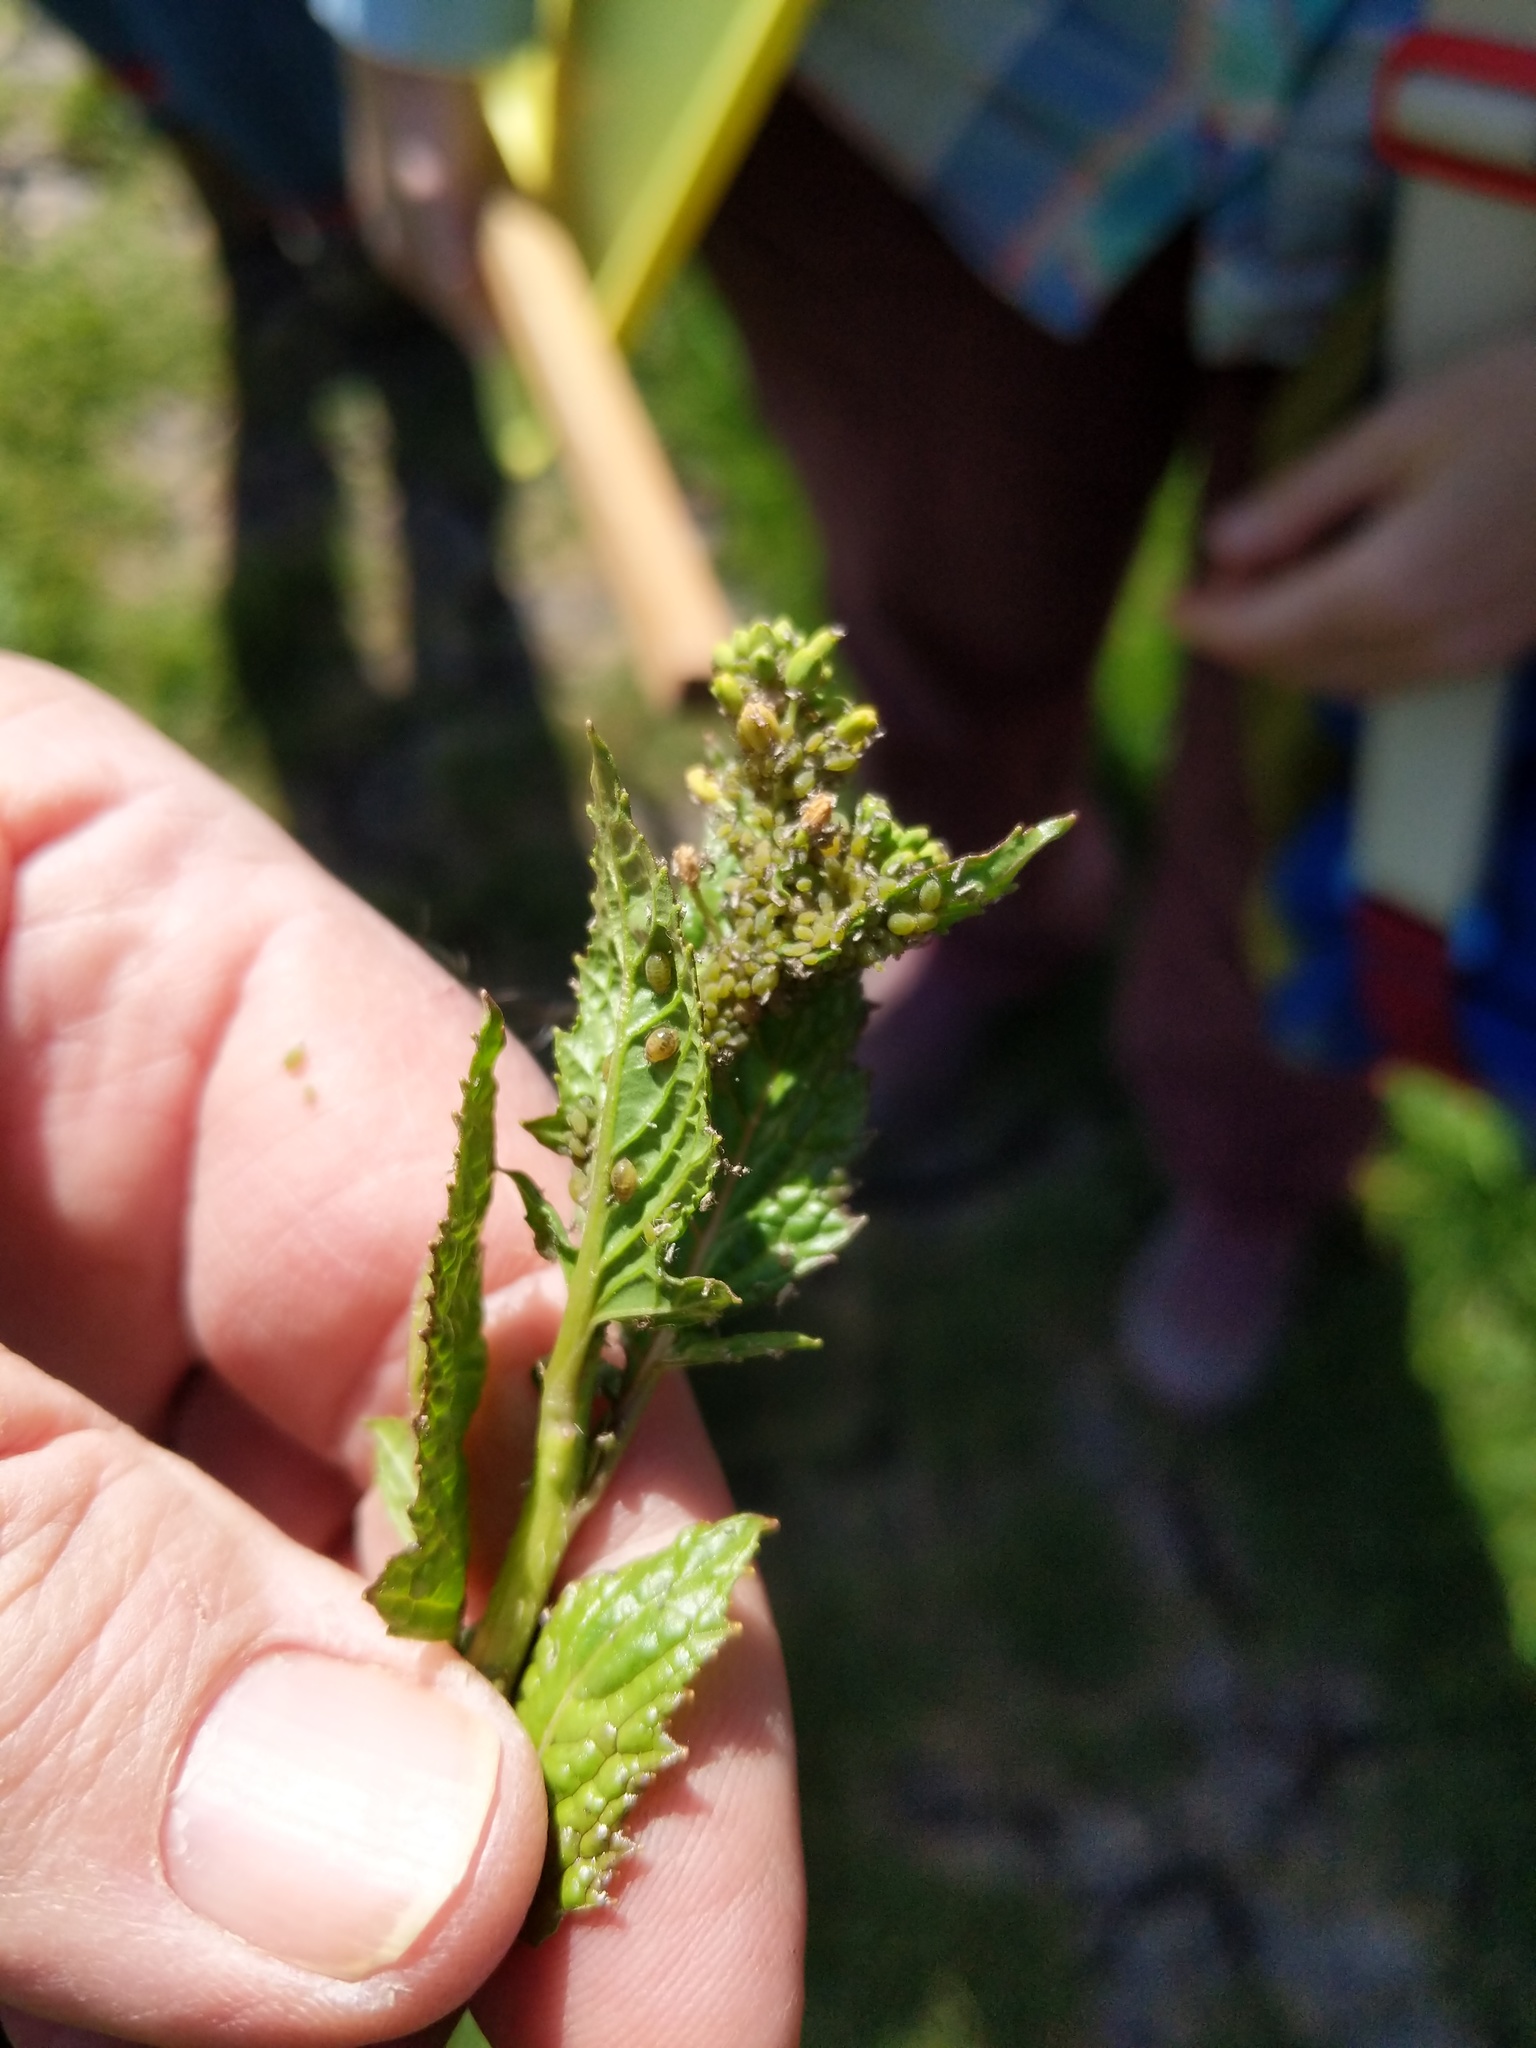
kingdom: Animalia
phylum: Arthropoda
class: Insecta
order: Hemiptera
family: Aphididae
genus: Lipaphis
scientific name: Lipaphis pseudobrassicae
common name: Turnip aphid
